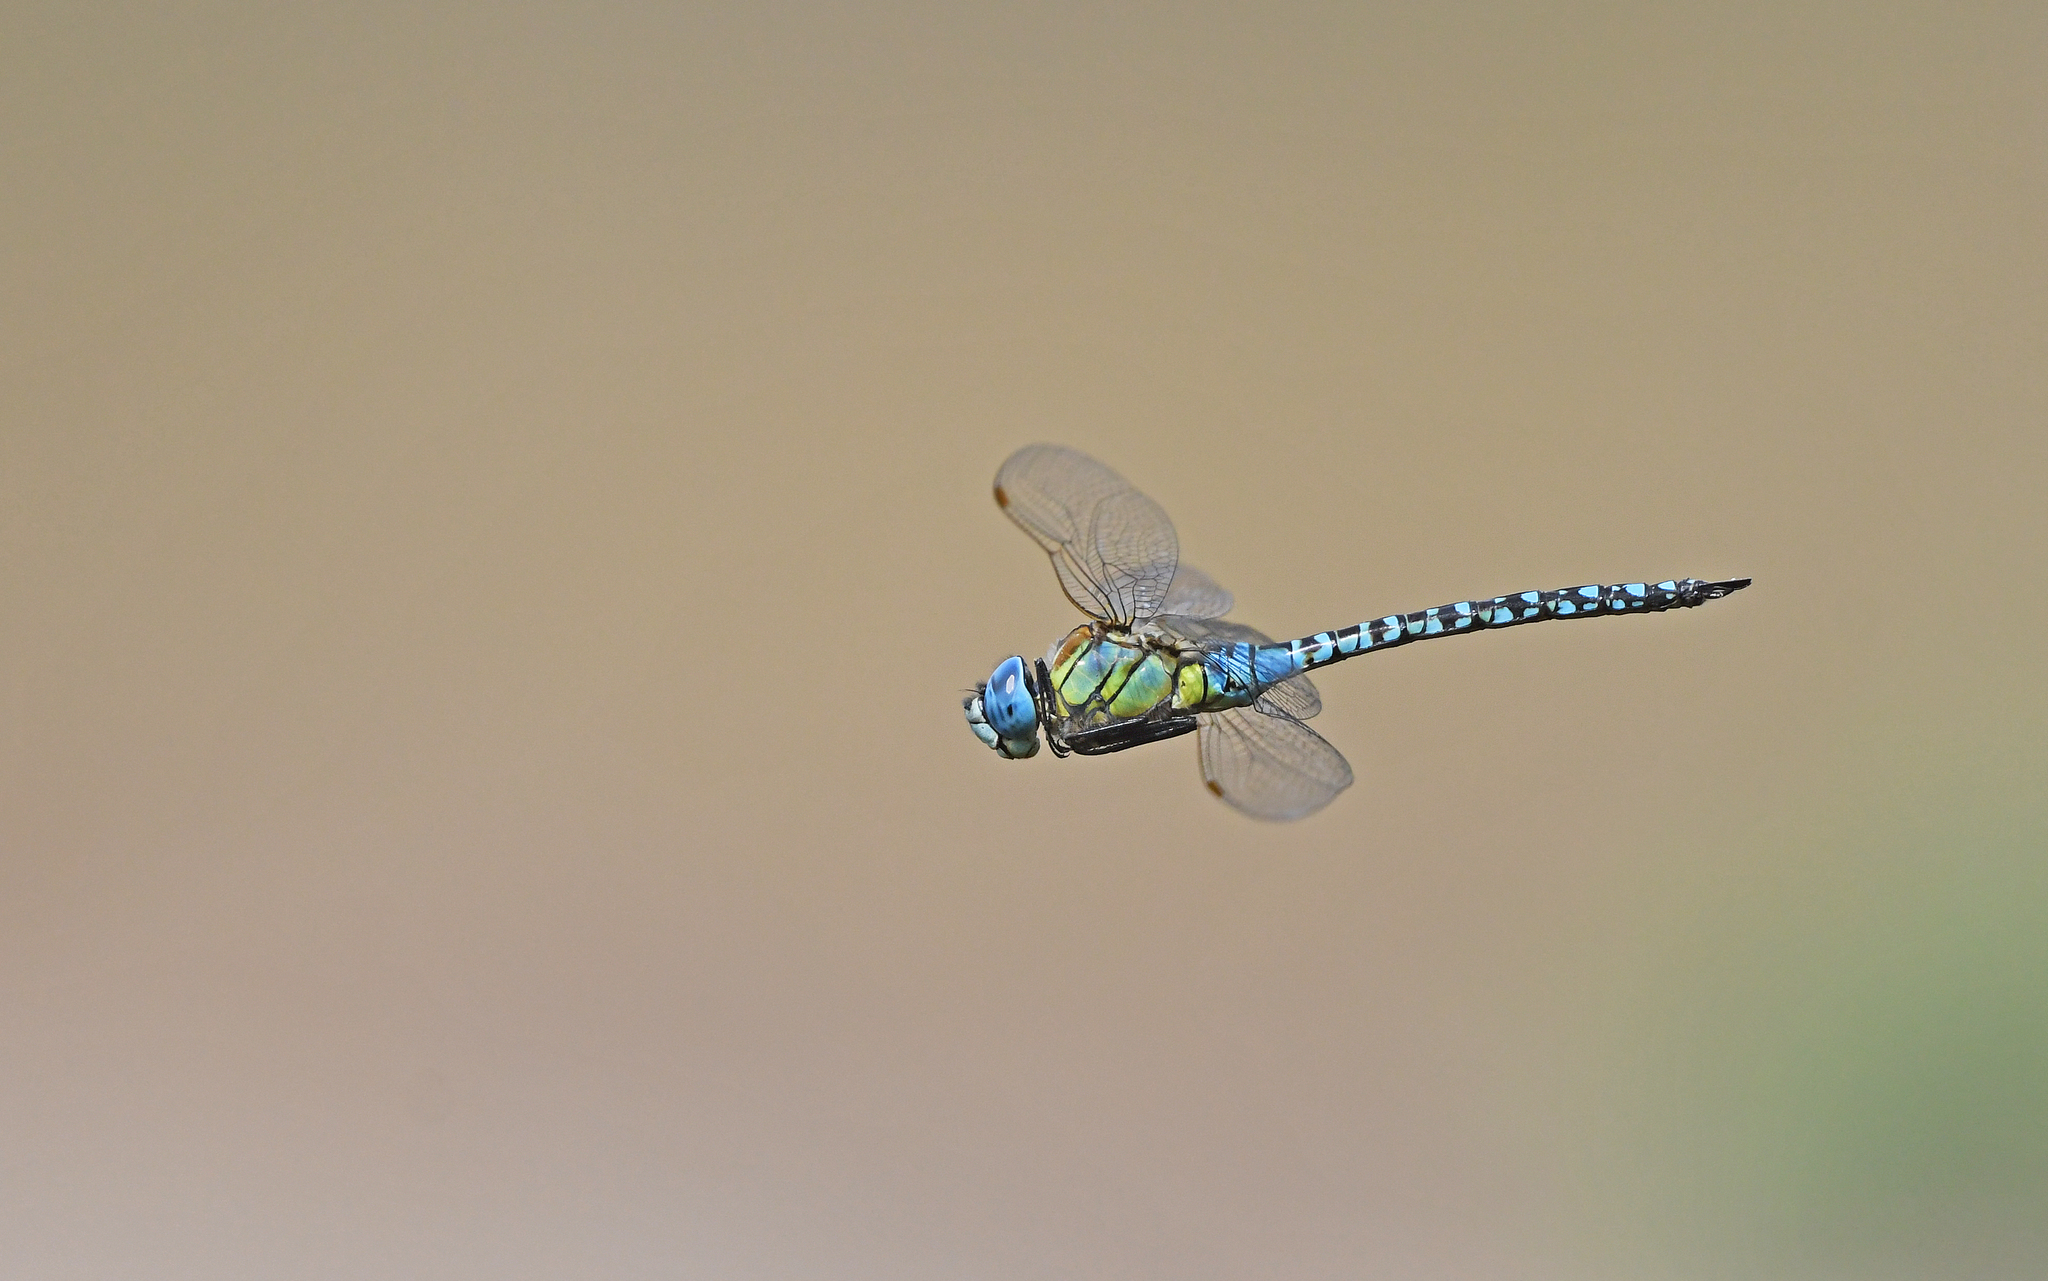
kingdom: Animalia
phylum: Arthropoda
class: Insecta
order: Odonata
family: Aeshnidae
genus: Aeshna
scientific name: Aeshna affinis
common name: Southern migrant hawker
